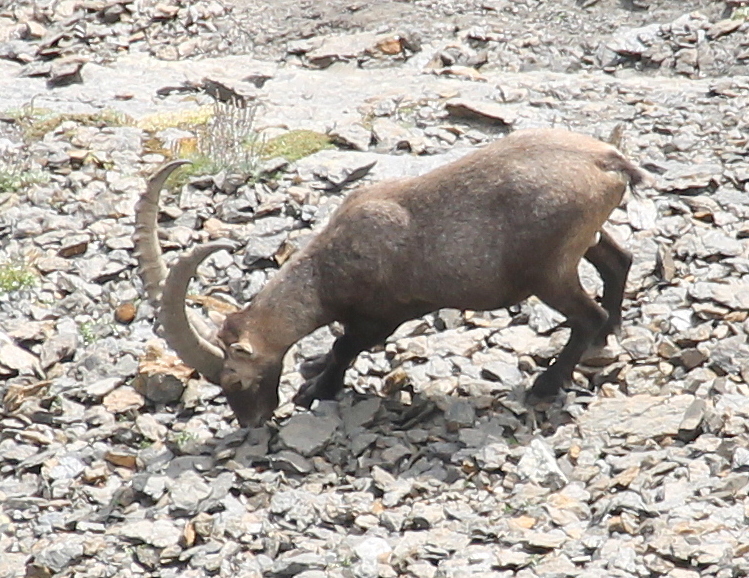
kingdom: Animalia
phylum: Chordata
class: Mammalia
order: Artiodactyla
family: Bovidae
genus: Capra
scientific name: Capra ibex
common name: Alpine ibex
